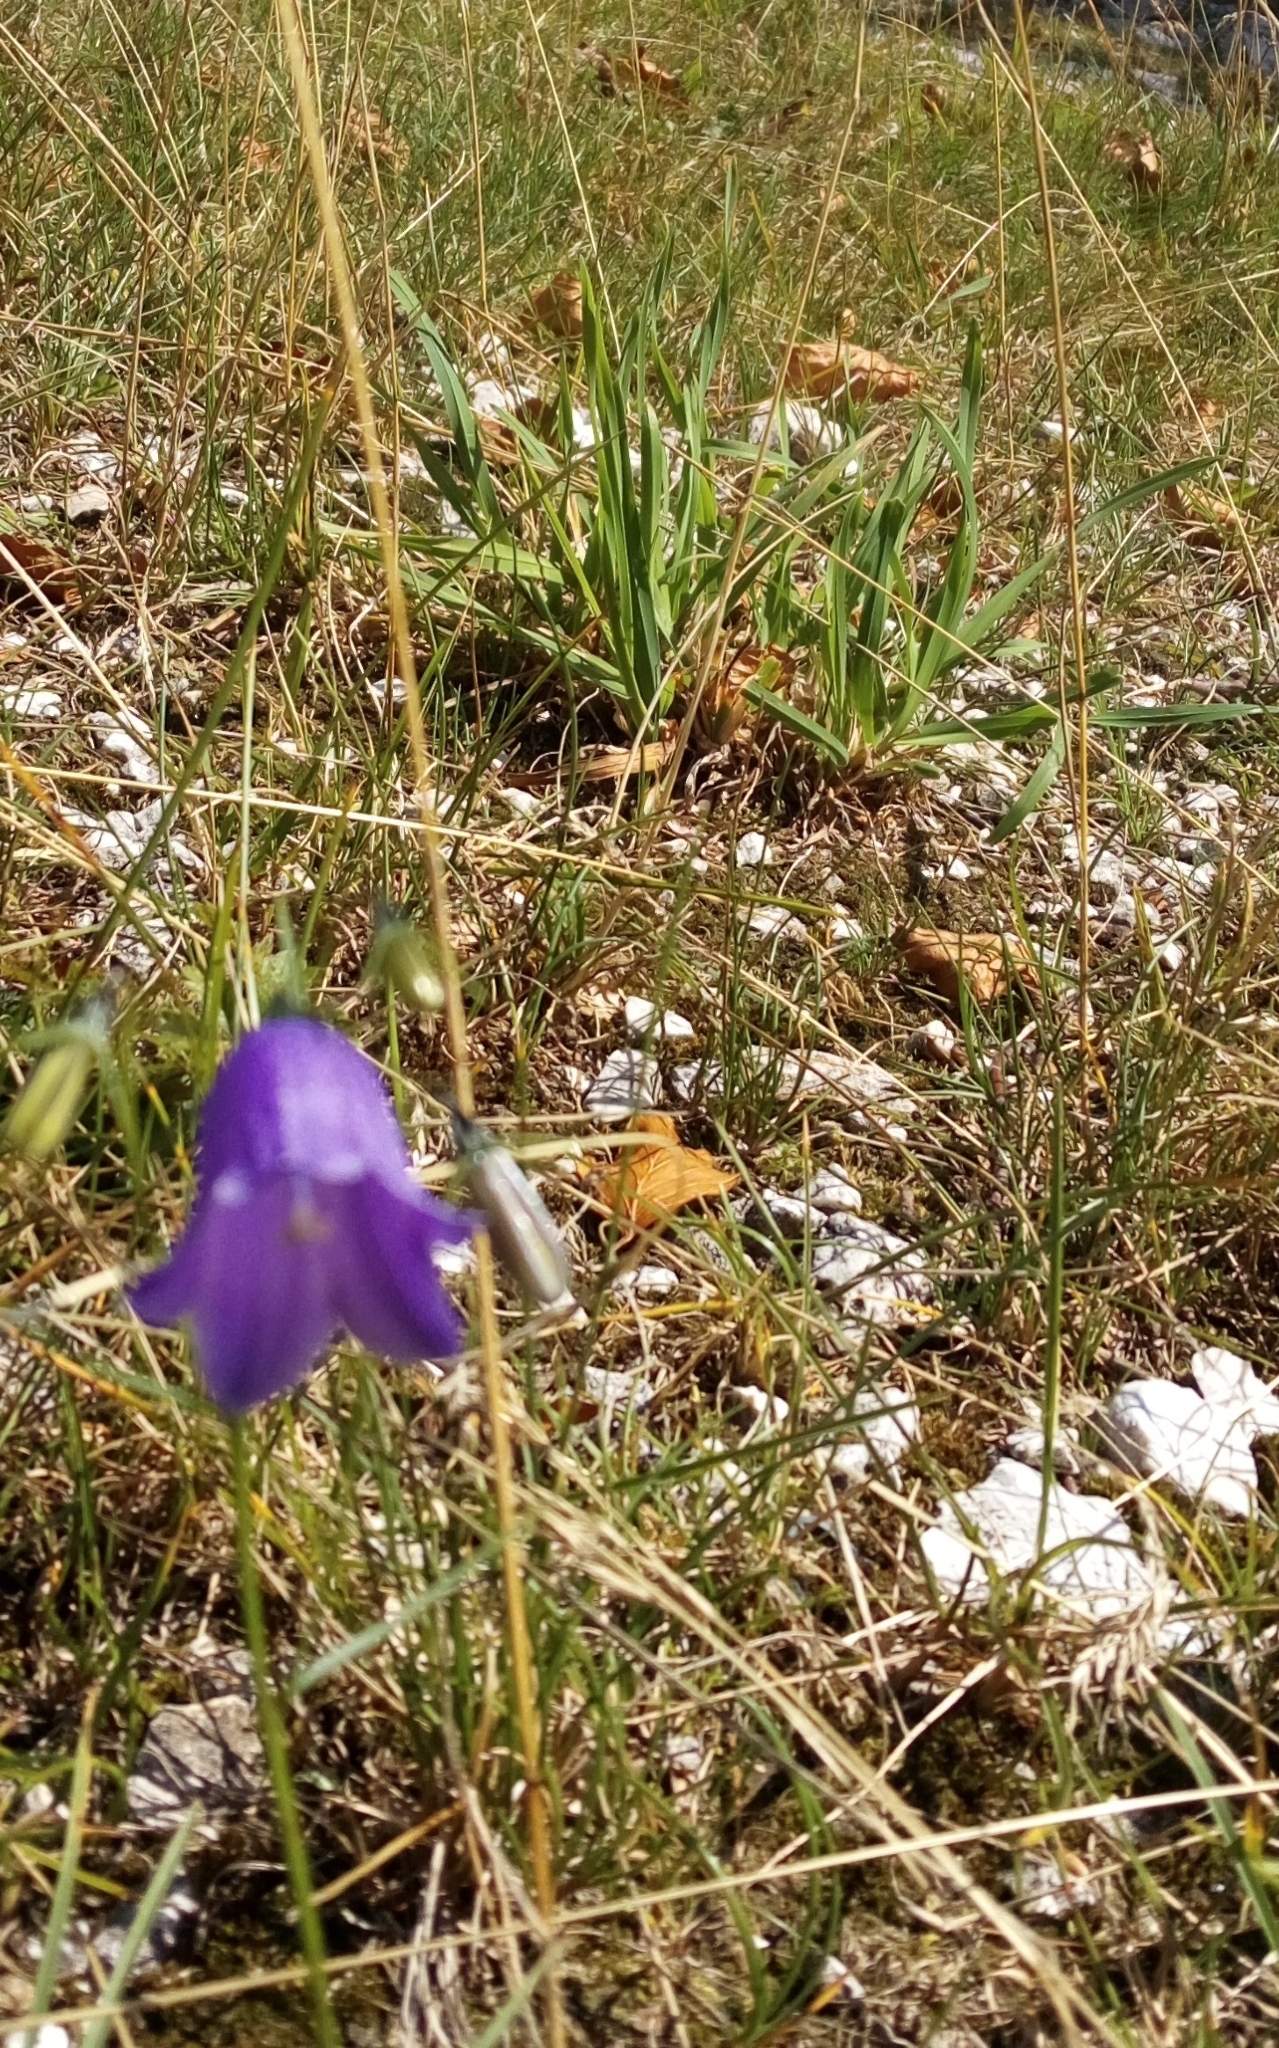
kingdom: Plantae
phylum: Tracheophyta
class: Magnoliopsida
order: Asterales
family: Campanulaceae
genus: Campanula
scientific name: Campanula scheuchzeri
